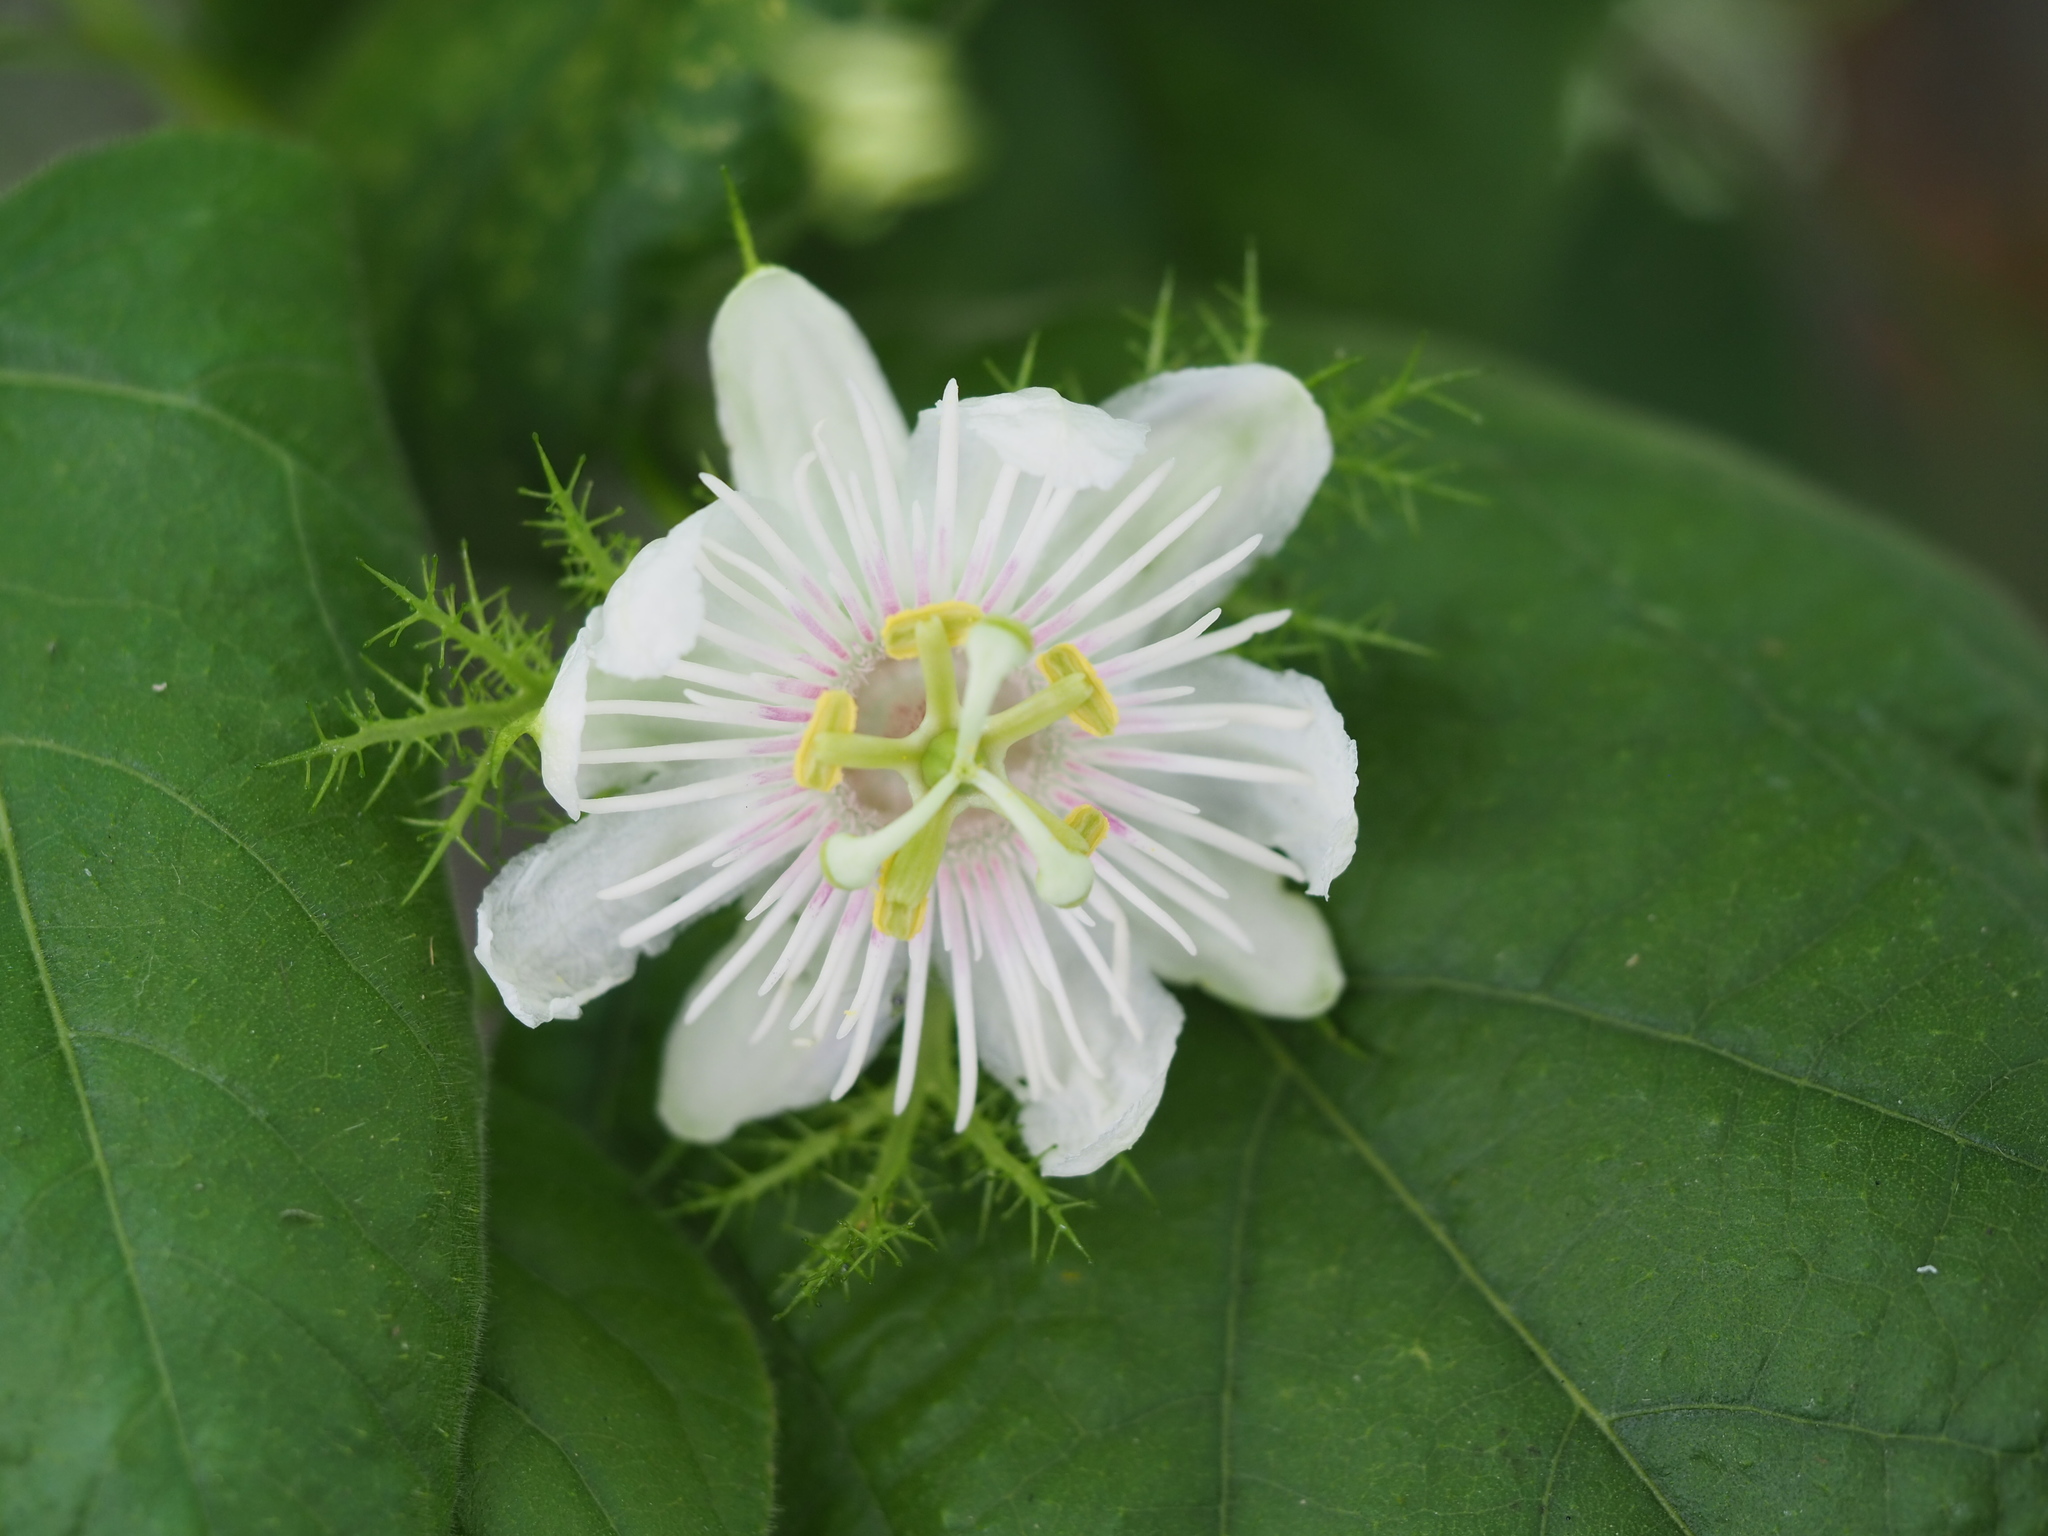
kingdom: Plantae
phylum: Tracheophyta
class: Magnoliopsida
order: Malpighiales
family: Passifloraceae
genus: Passiflora
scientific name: Passiflora vesicaria
